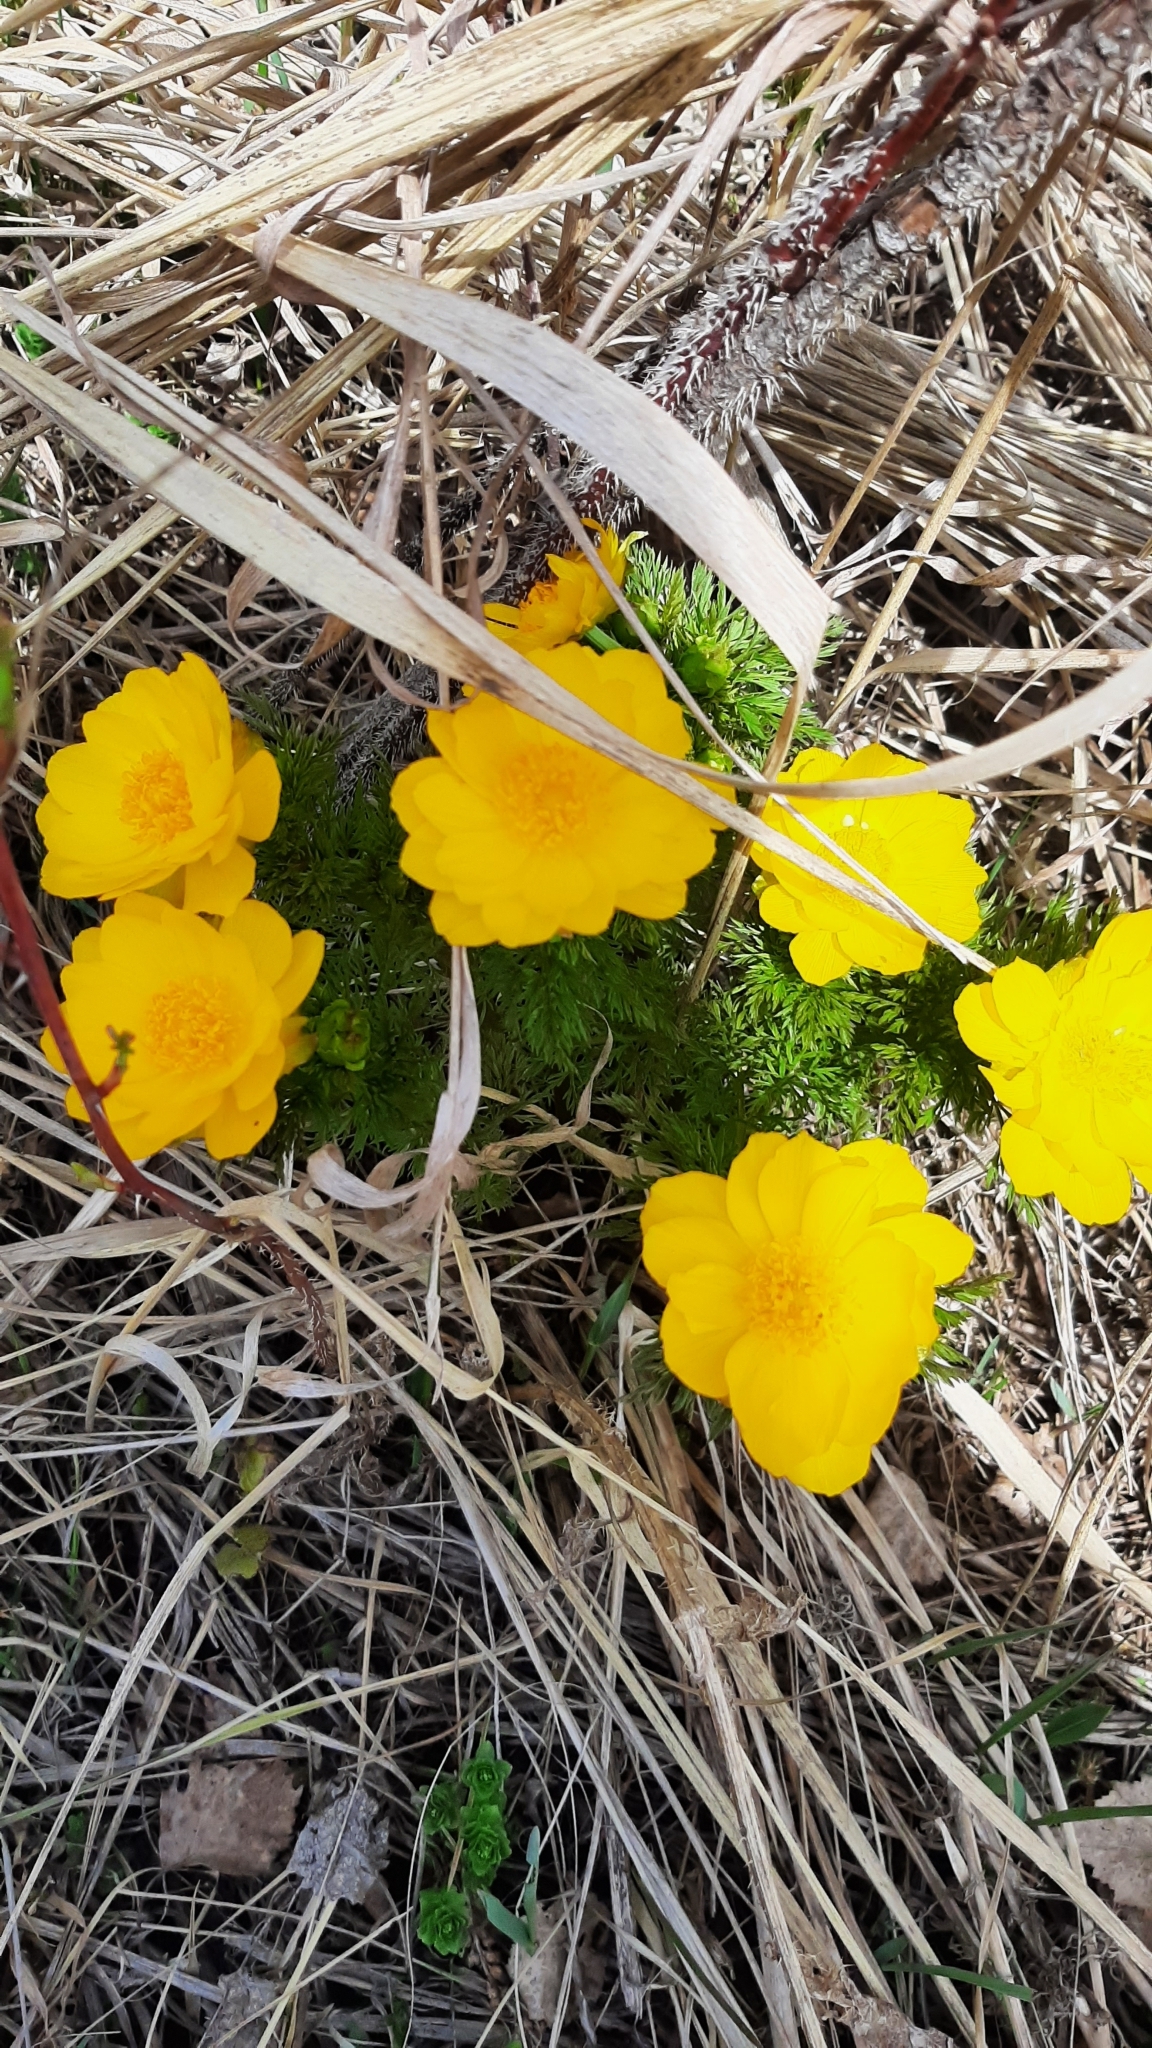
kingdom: Plantae
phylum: Tracheophyta
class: Magnoliopsida
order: Ranunculales
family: Ranunculaceae
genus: Adonis
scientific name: Adonis vernalis
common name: Yellow pheasants-eye
